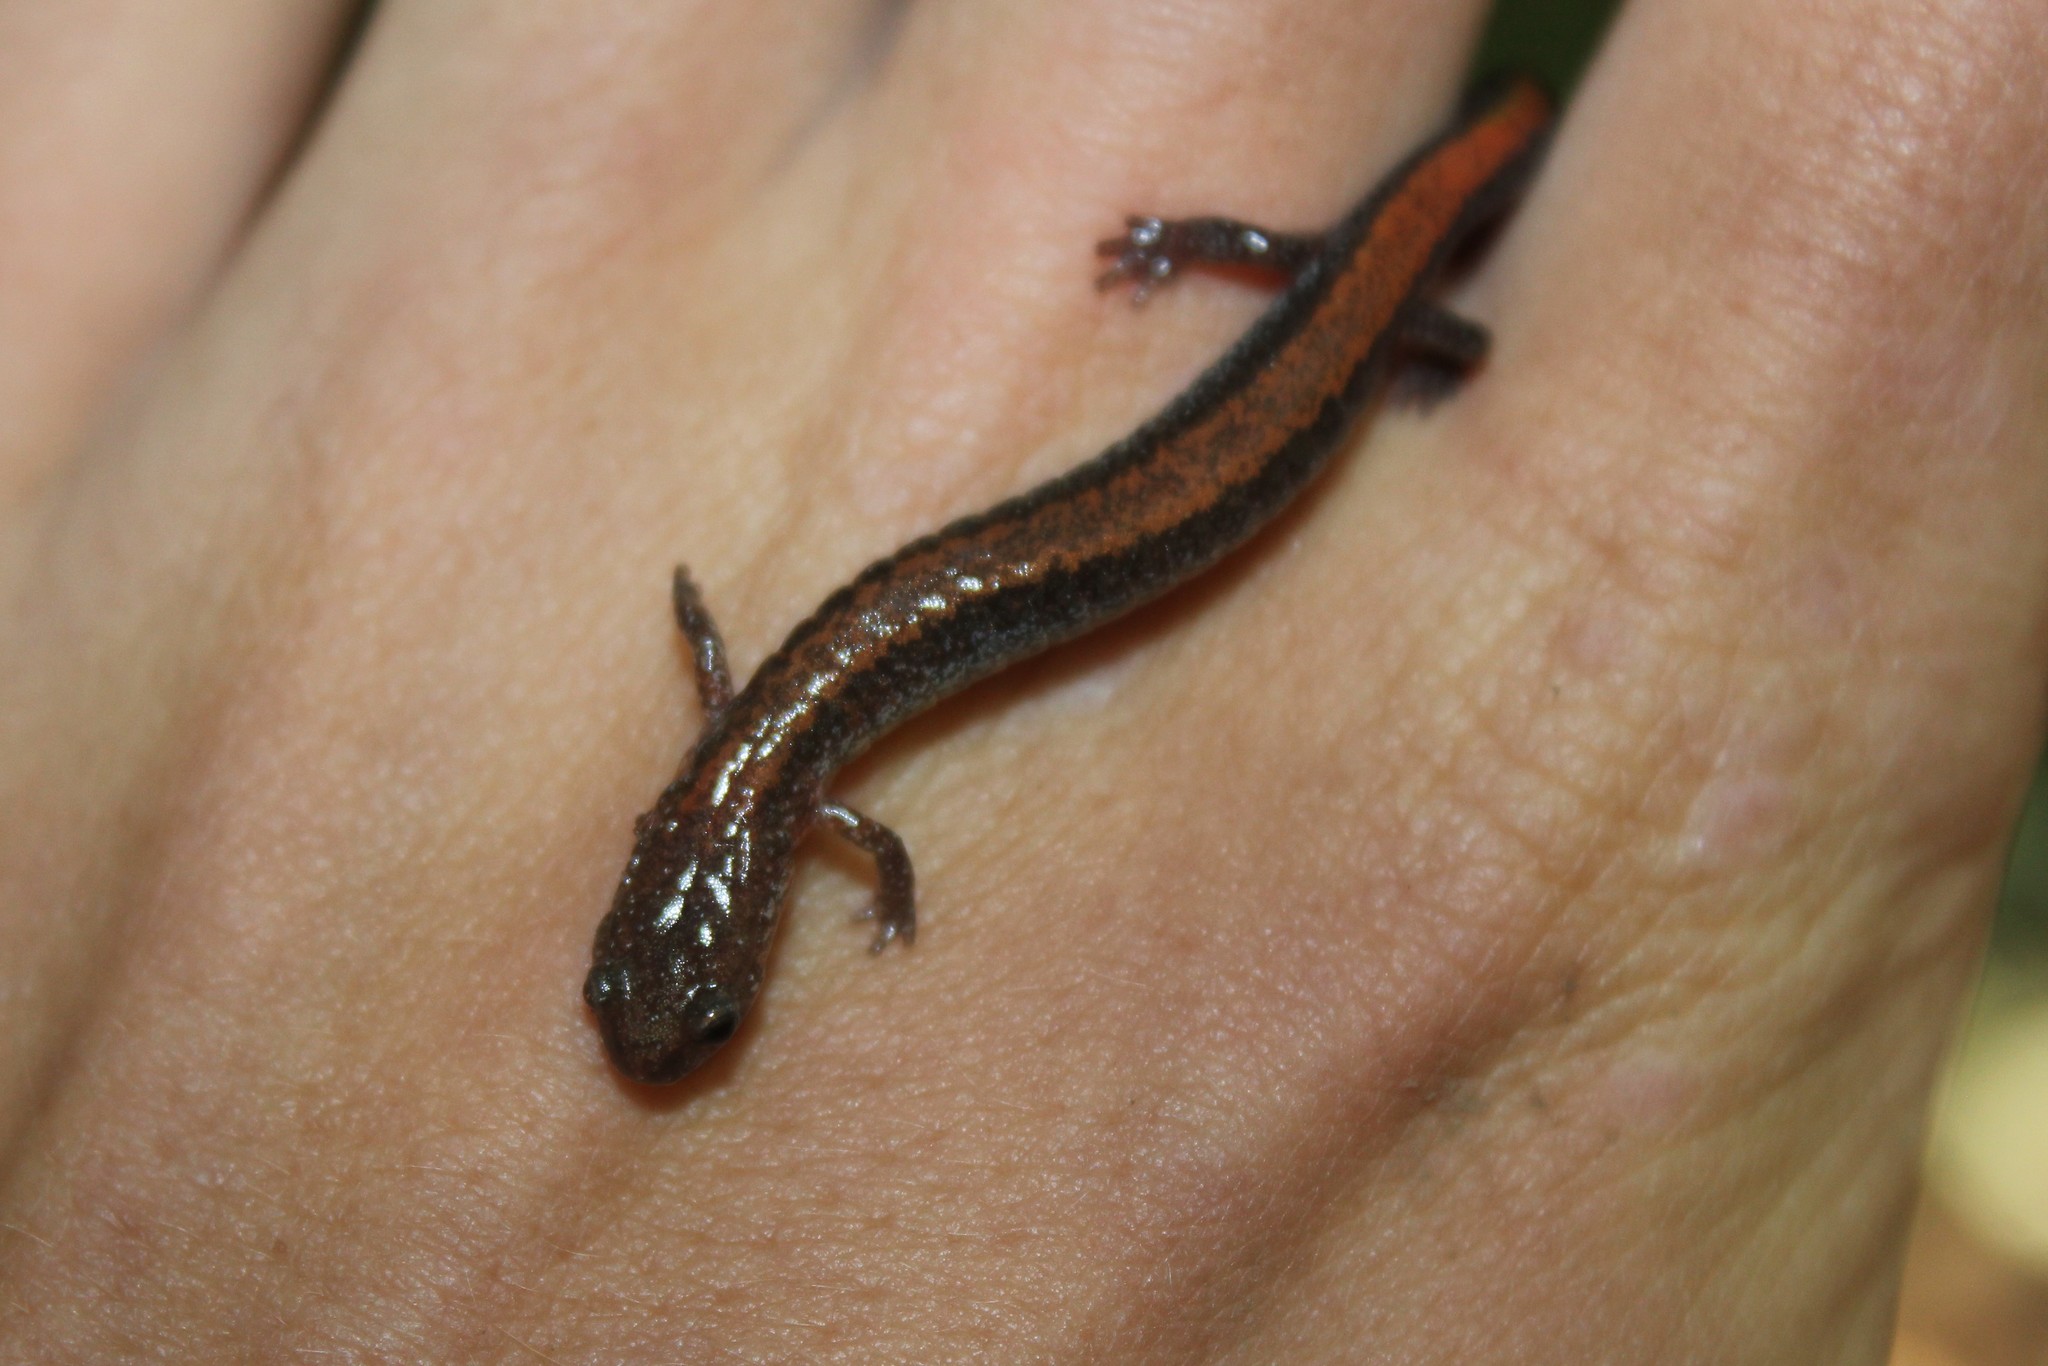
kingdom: Animalia
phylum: Chordata
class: Amphibia
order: Caudata
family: Plethodontidae
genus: Plethodon
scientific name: Plethodon cinereus
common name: Redback salamander
